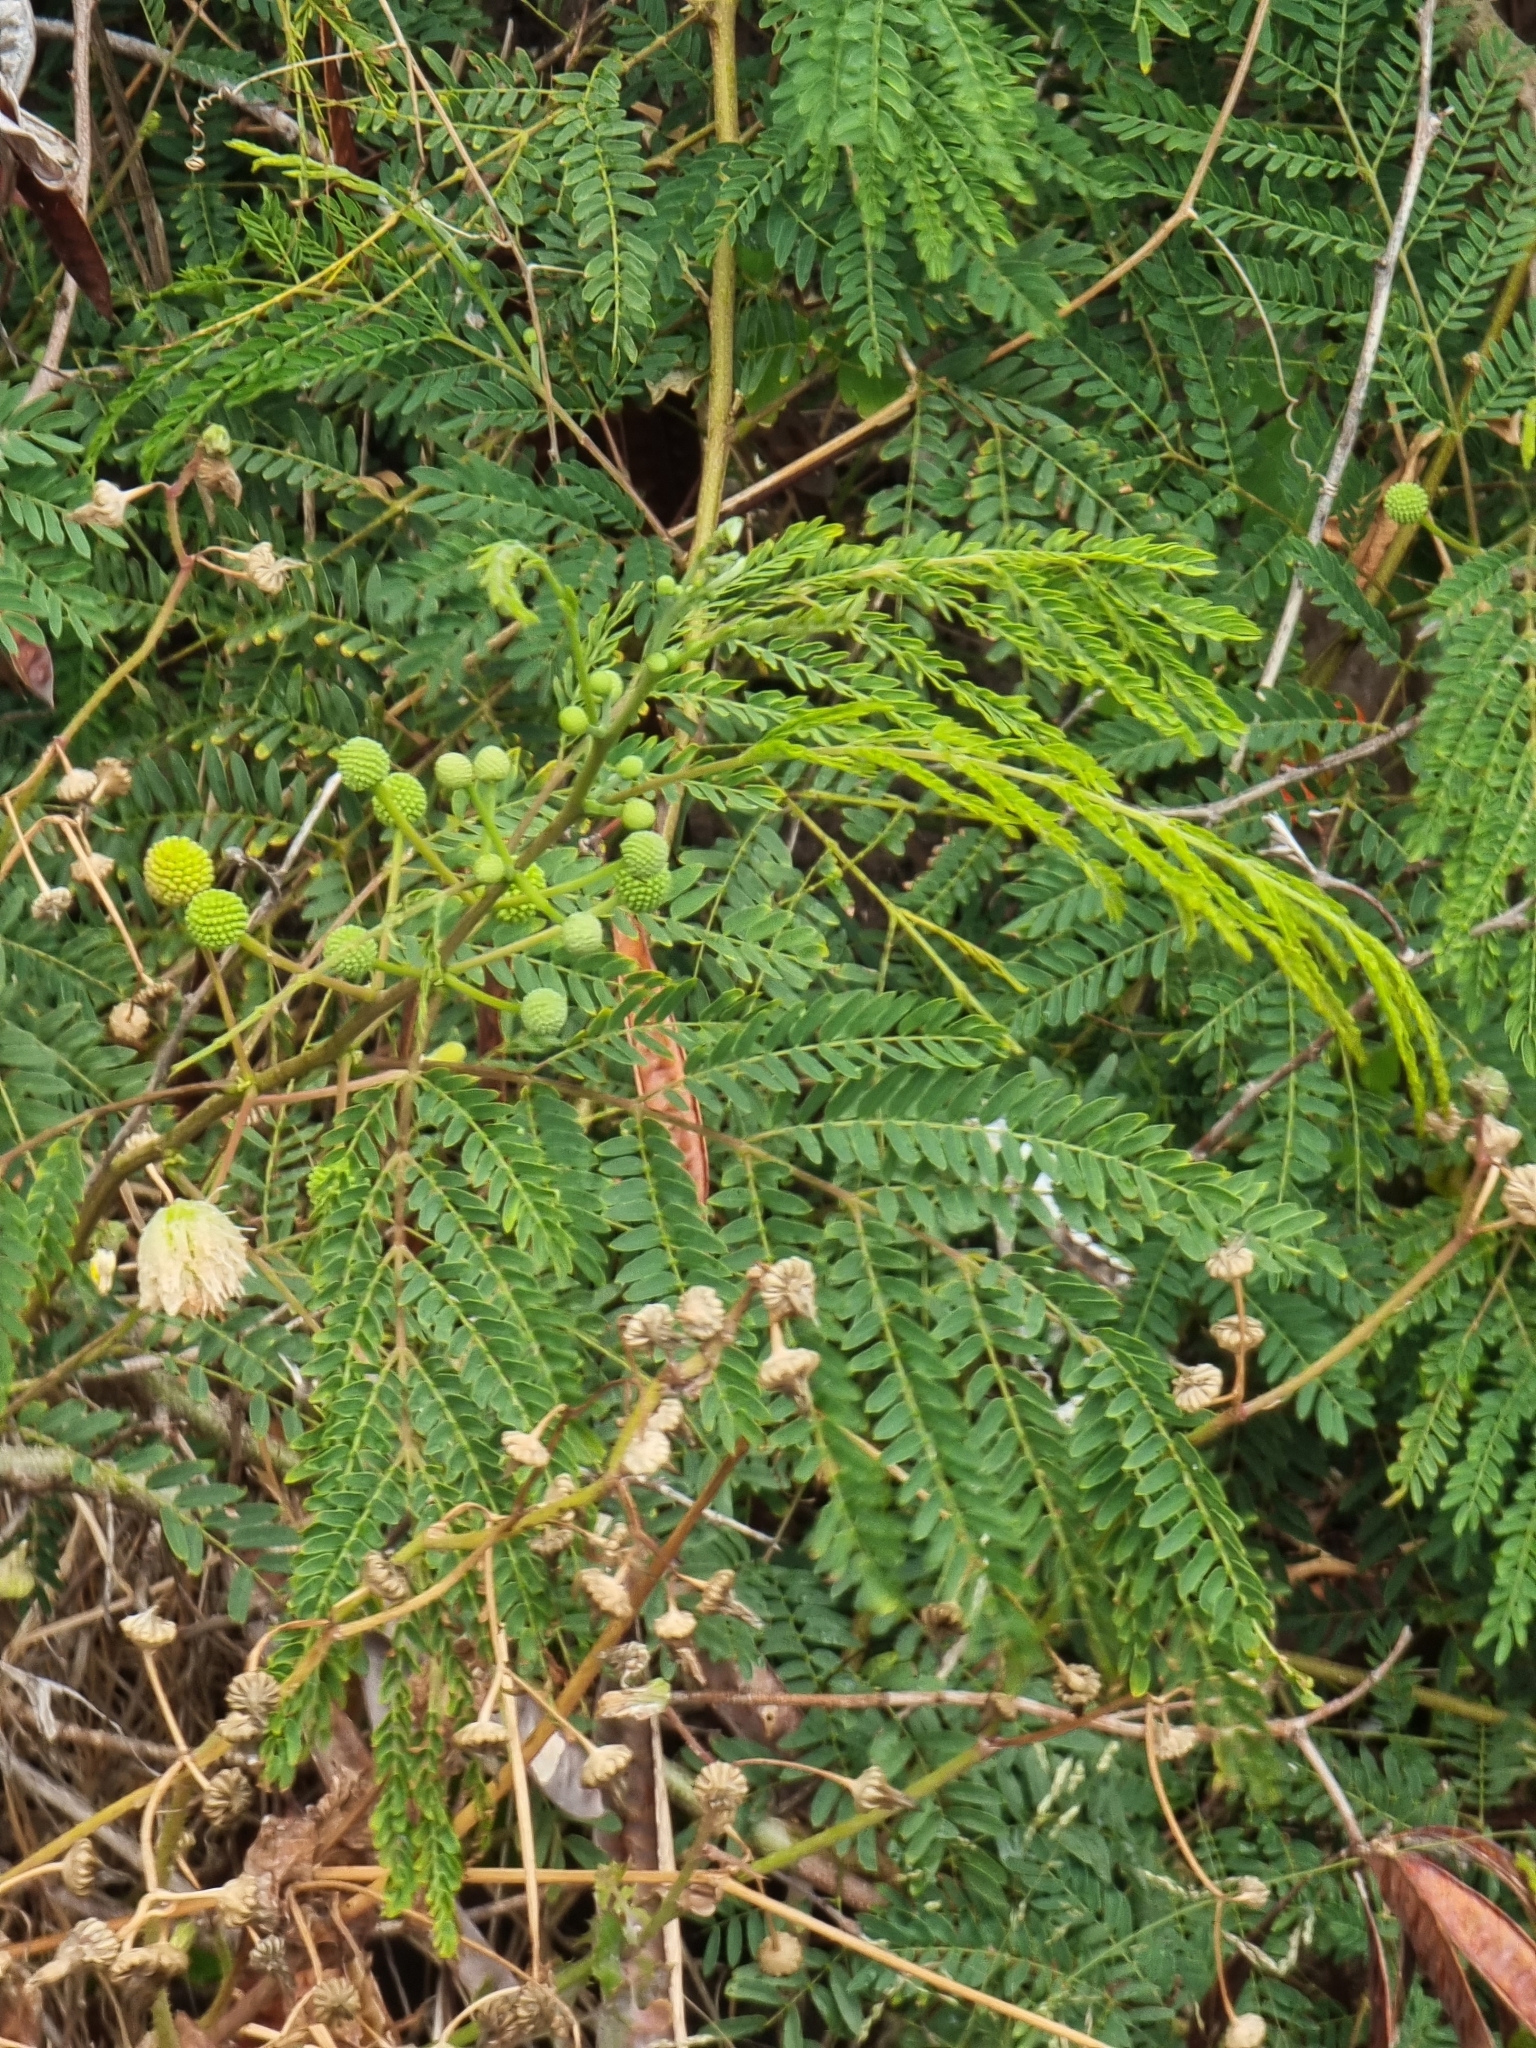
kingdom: Plantae
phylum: Tracheophyta
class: Magnoliopsida
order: Fabales
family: Fabaceae
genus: Leucaena
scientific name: Leucaena leucocephala
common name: White leadtree
